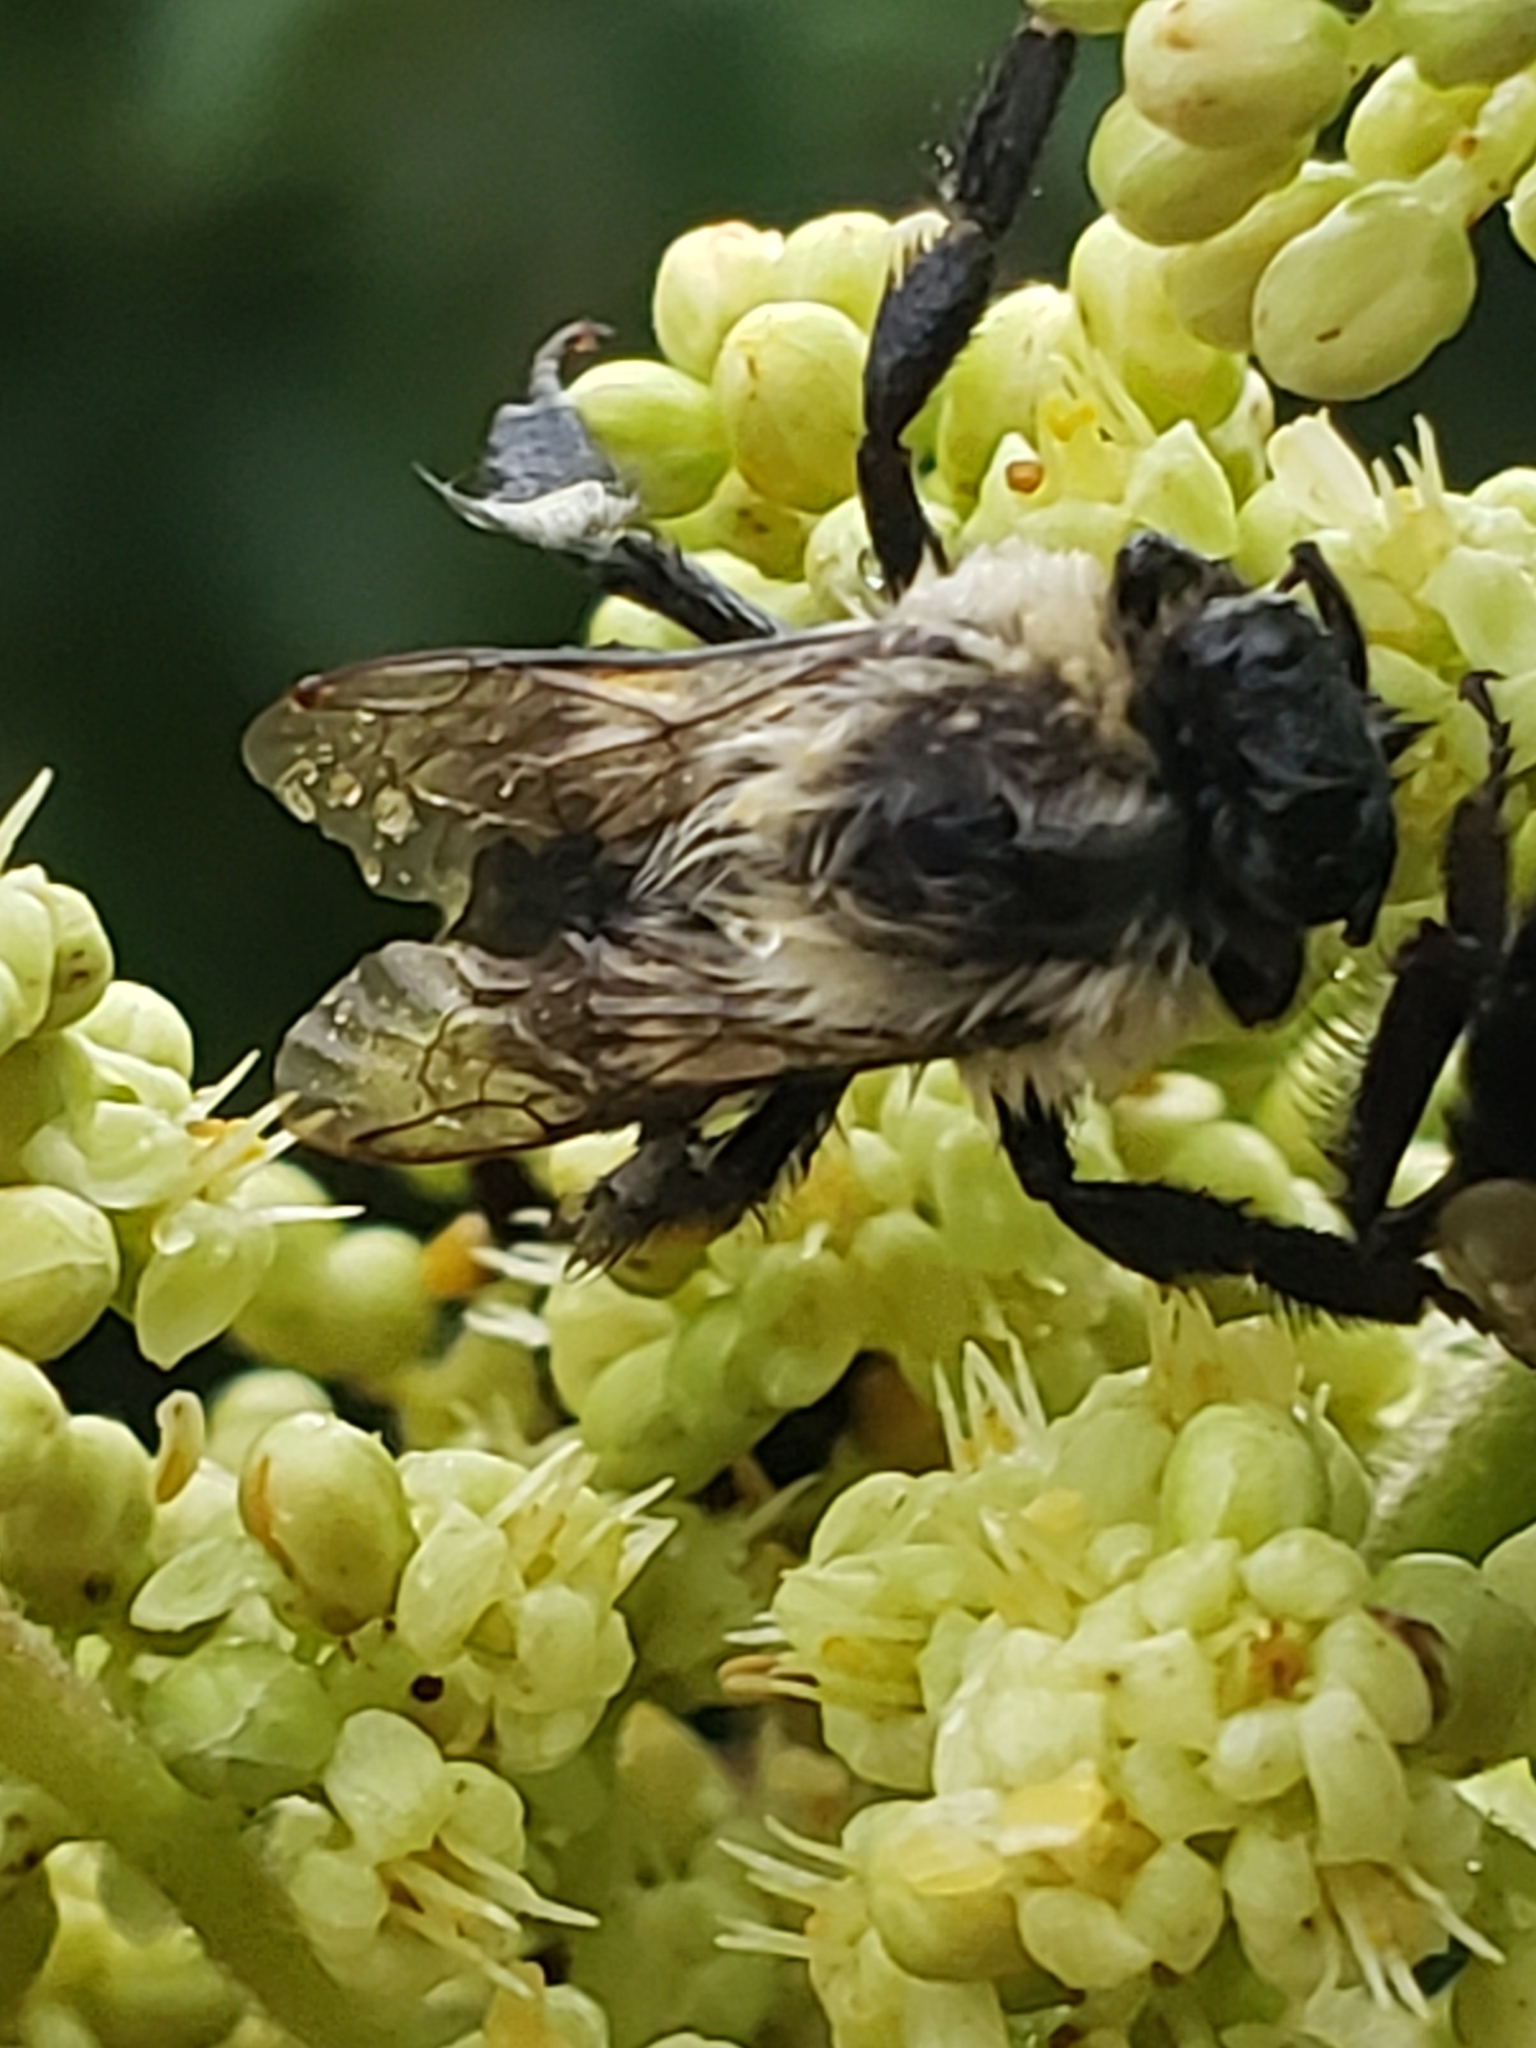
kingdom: Animalia
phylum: Arthropoda
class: Insecta
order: Hymenoptera
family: Apidae
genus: Bombus
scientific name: Bombus impatiens
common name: Common eastern bumble bee
